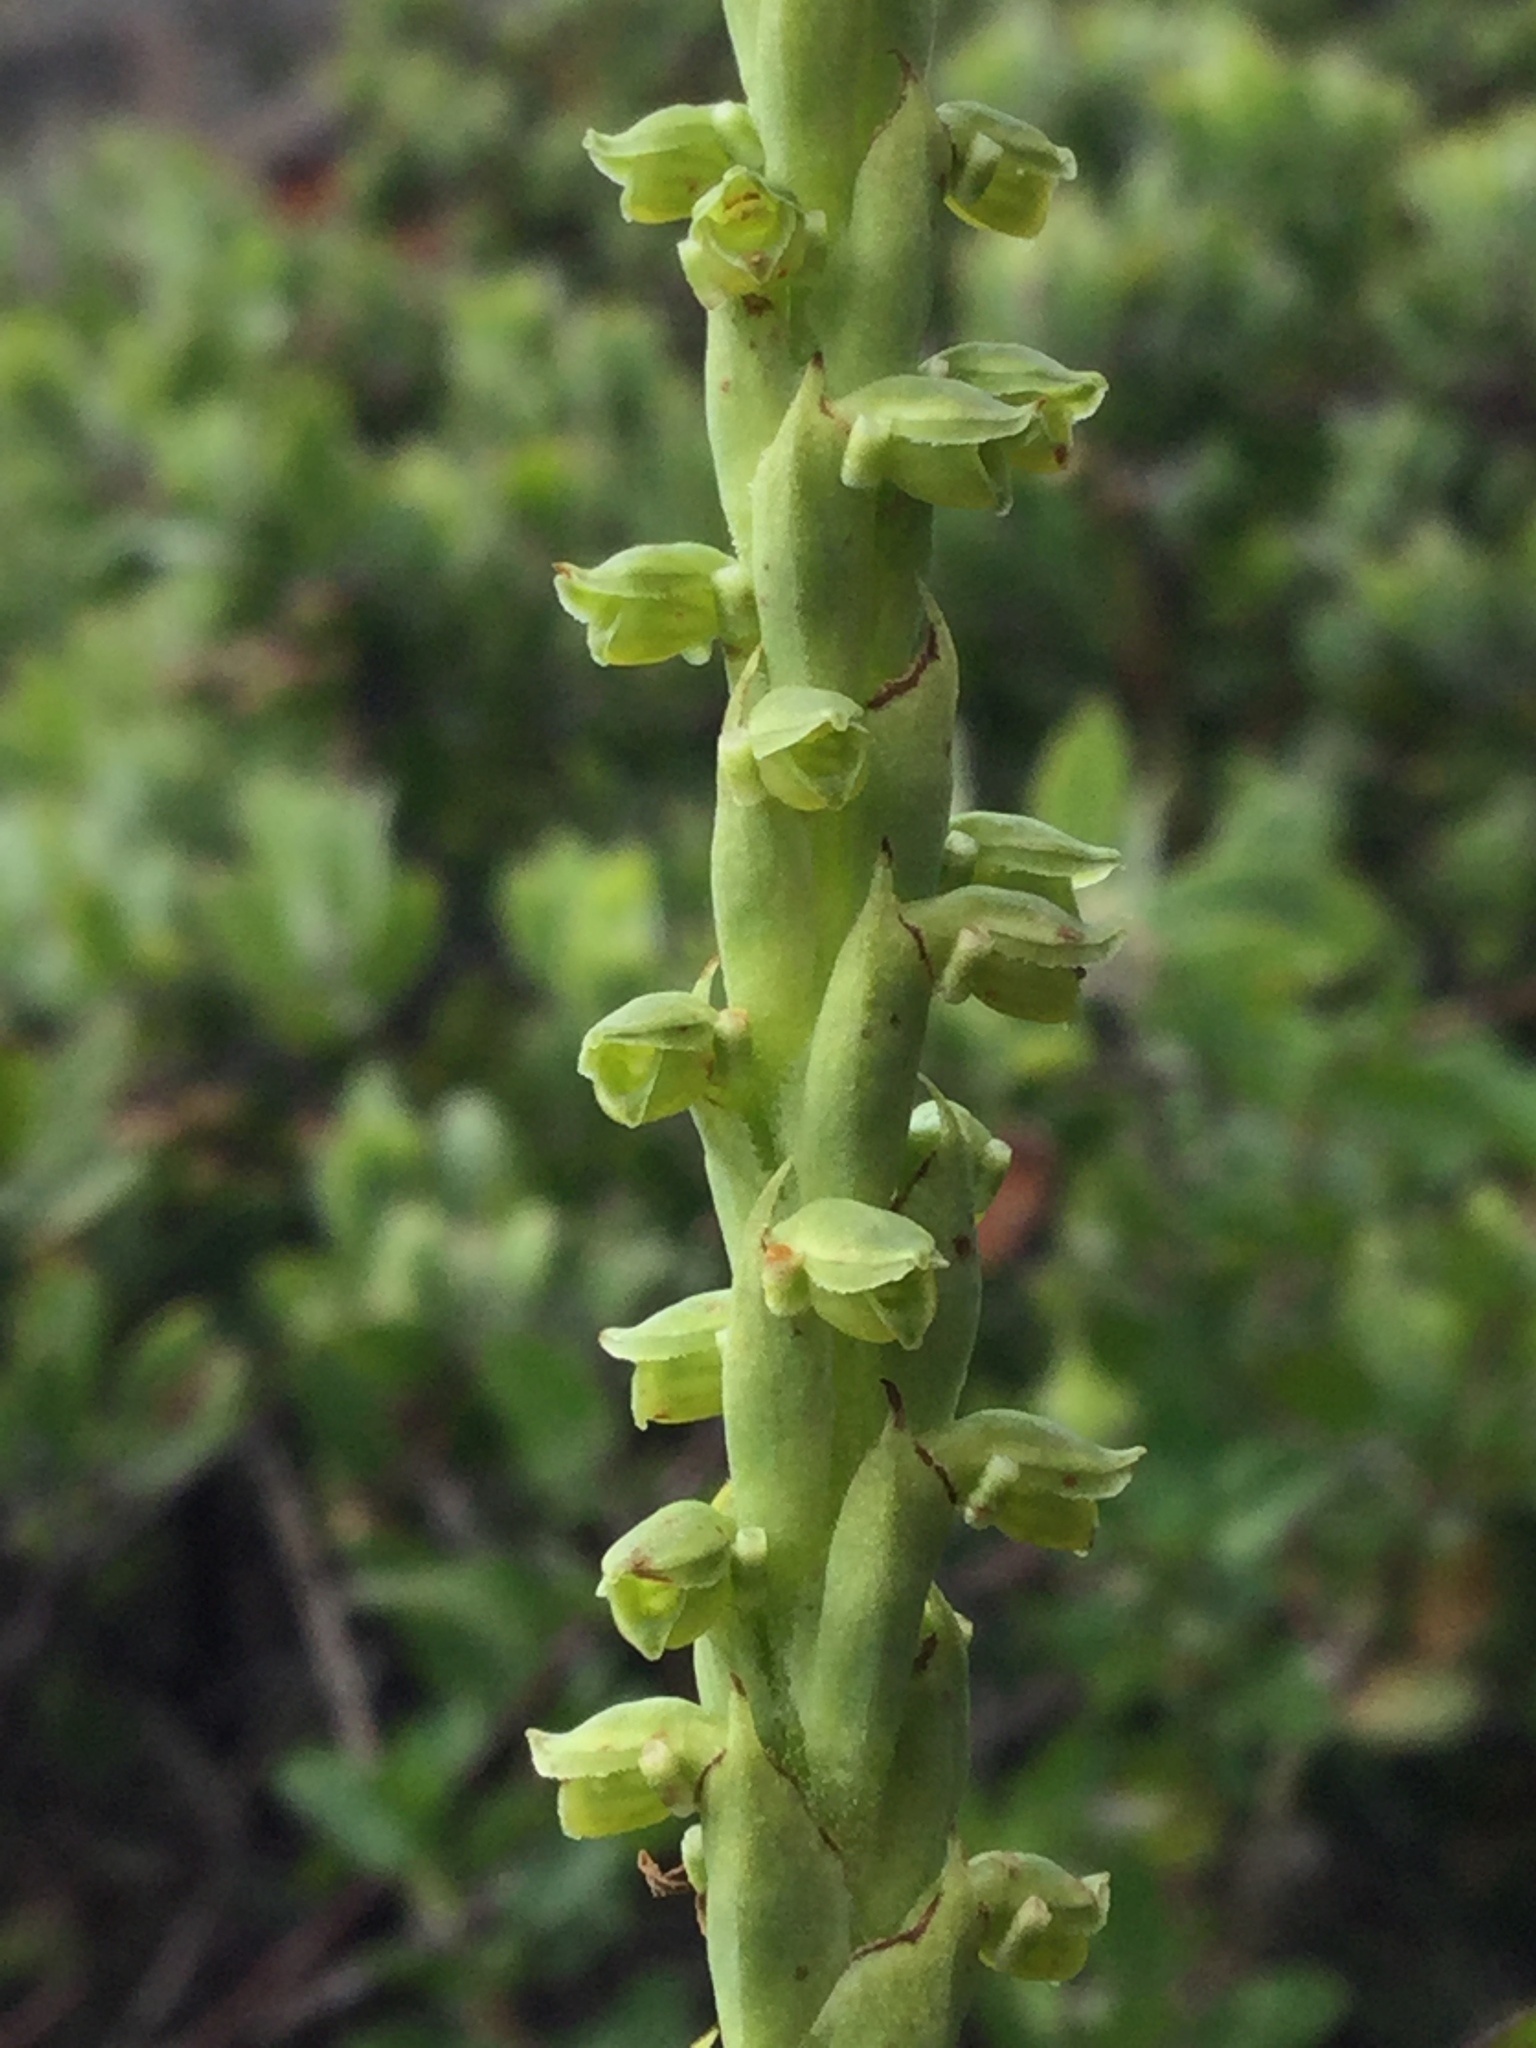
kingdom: Plantae
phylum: Tracheophyta
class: Liliopsida
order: Asparagales
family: Orchidaceae
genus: Galeottiella
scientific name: Galeottiella sarcoglossa
